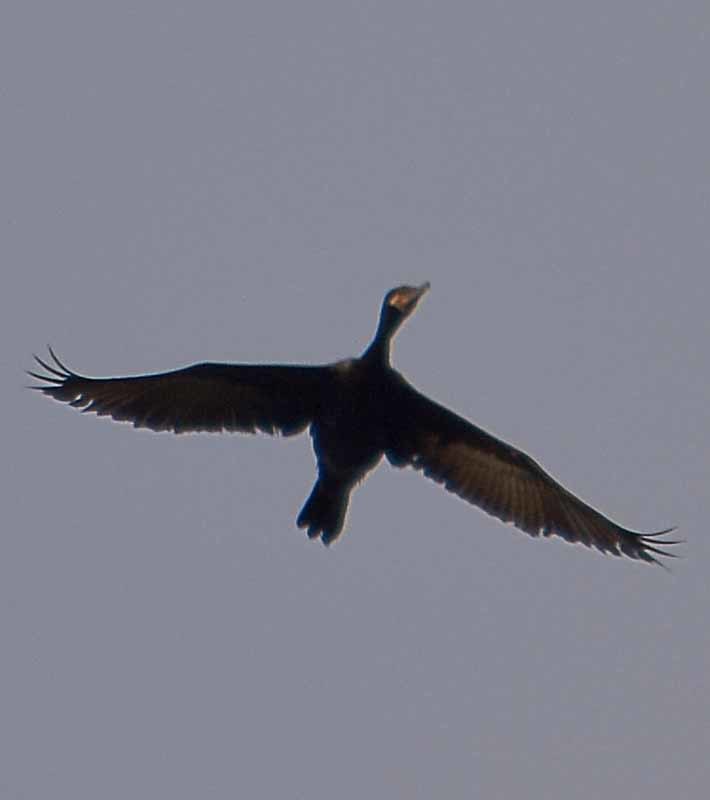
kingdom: Animalia
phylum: Chordata
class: Aves
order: Suliformes
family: Phalacrocoracidae
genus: Phalacrocorax
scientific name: Phalacrocorax brasilianus
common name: Neotropic cormorant
